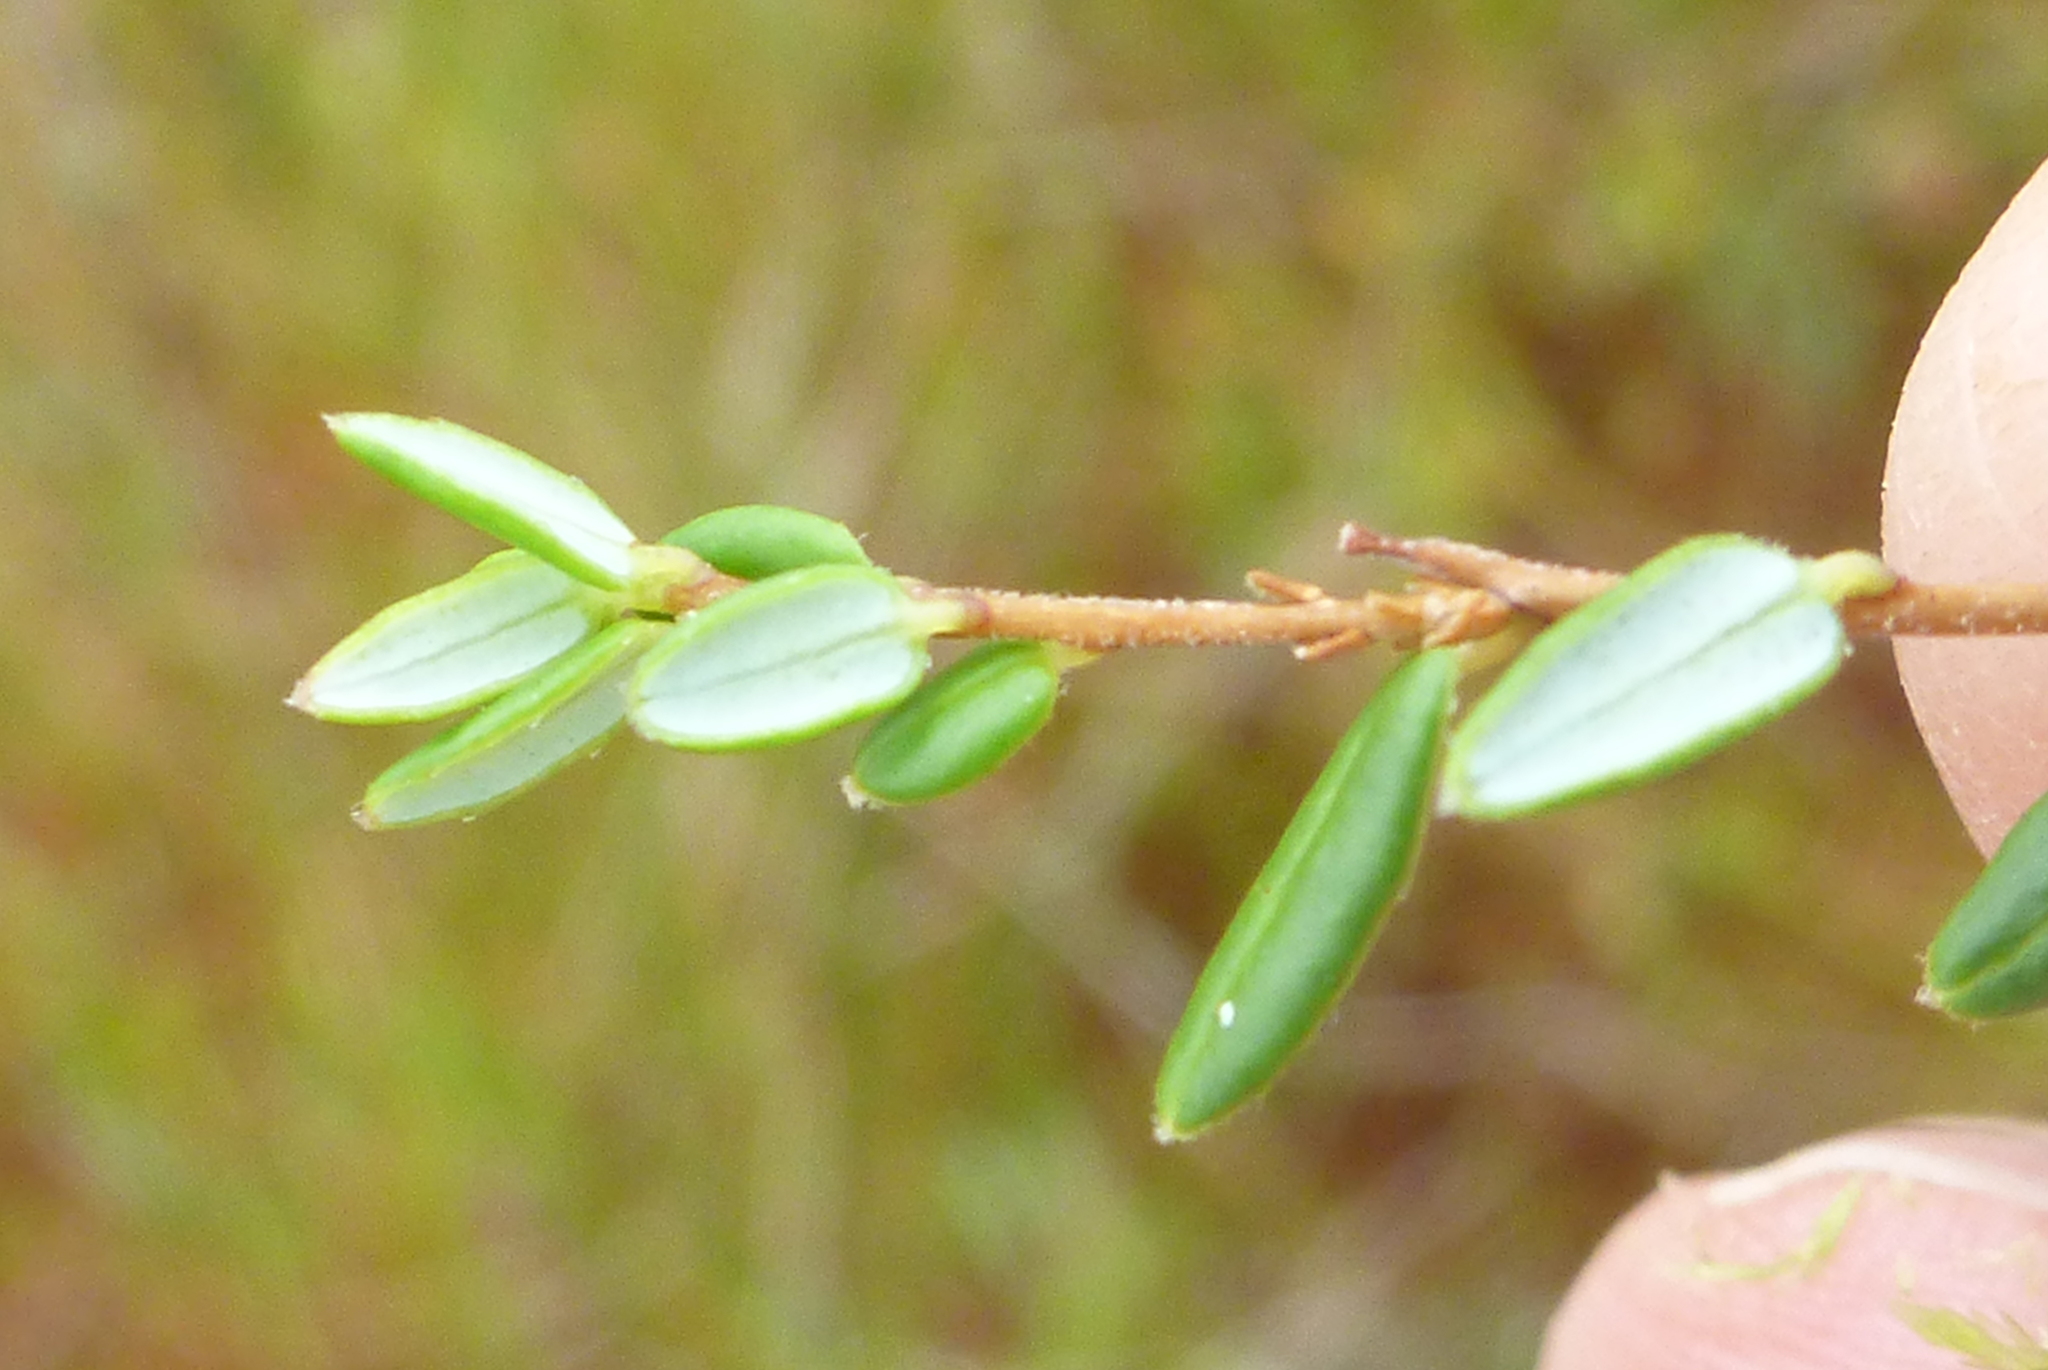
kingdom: Plantae
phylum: Tracheophyta
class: Magnoliopsida
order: Ericales
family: Ericaceae
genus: Vaccinium
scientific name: Vaccinium oxycoccos
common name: Cranberry
